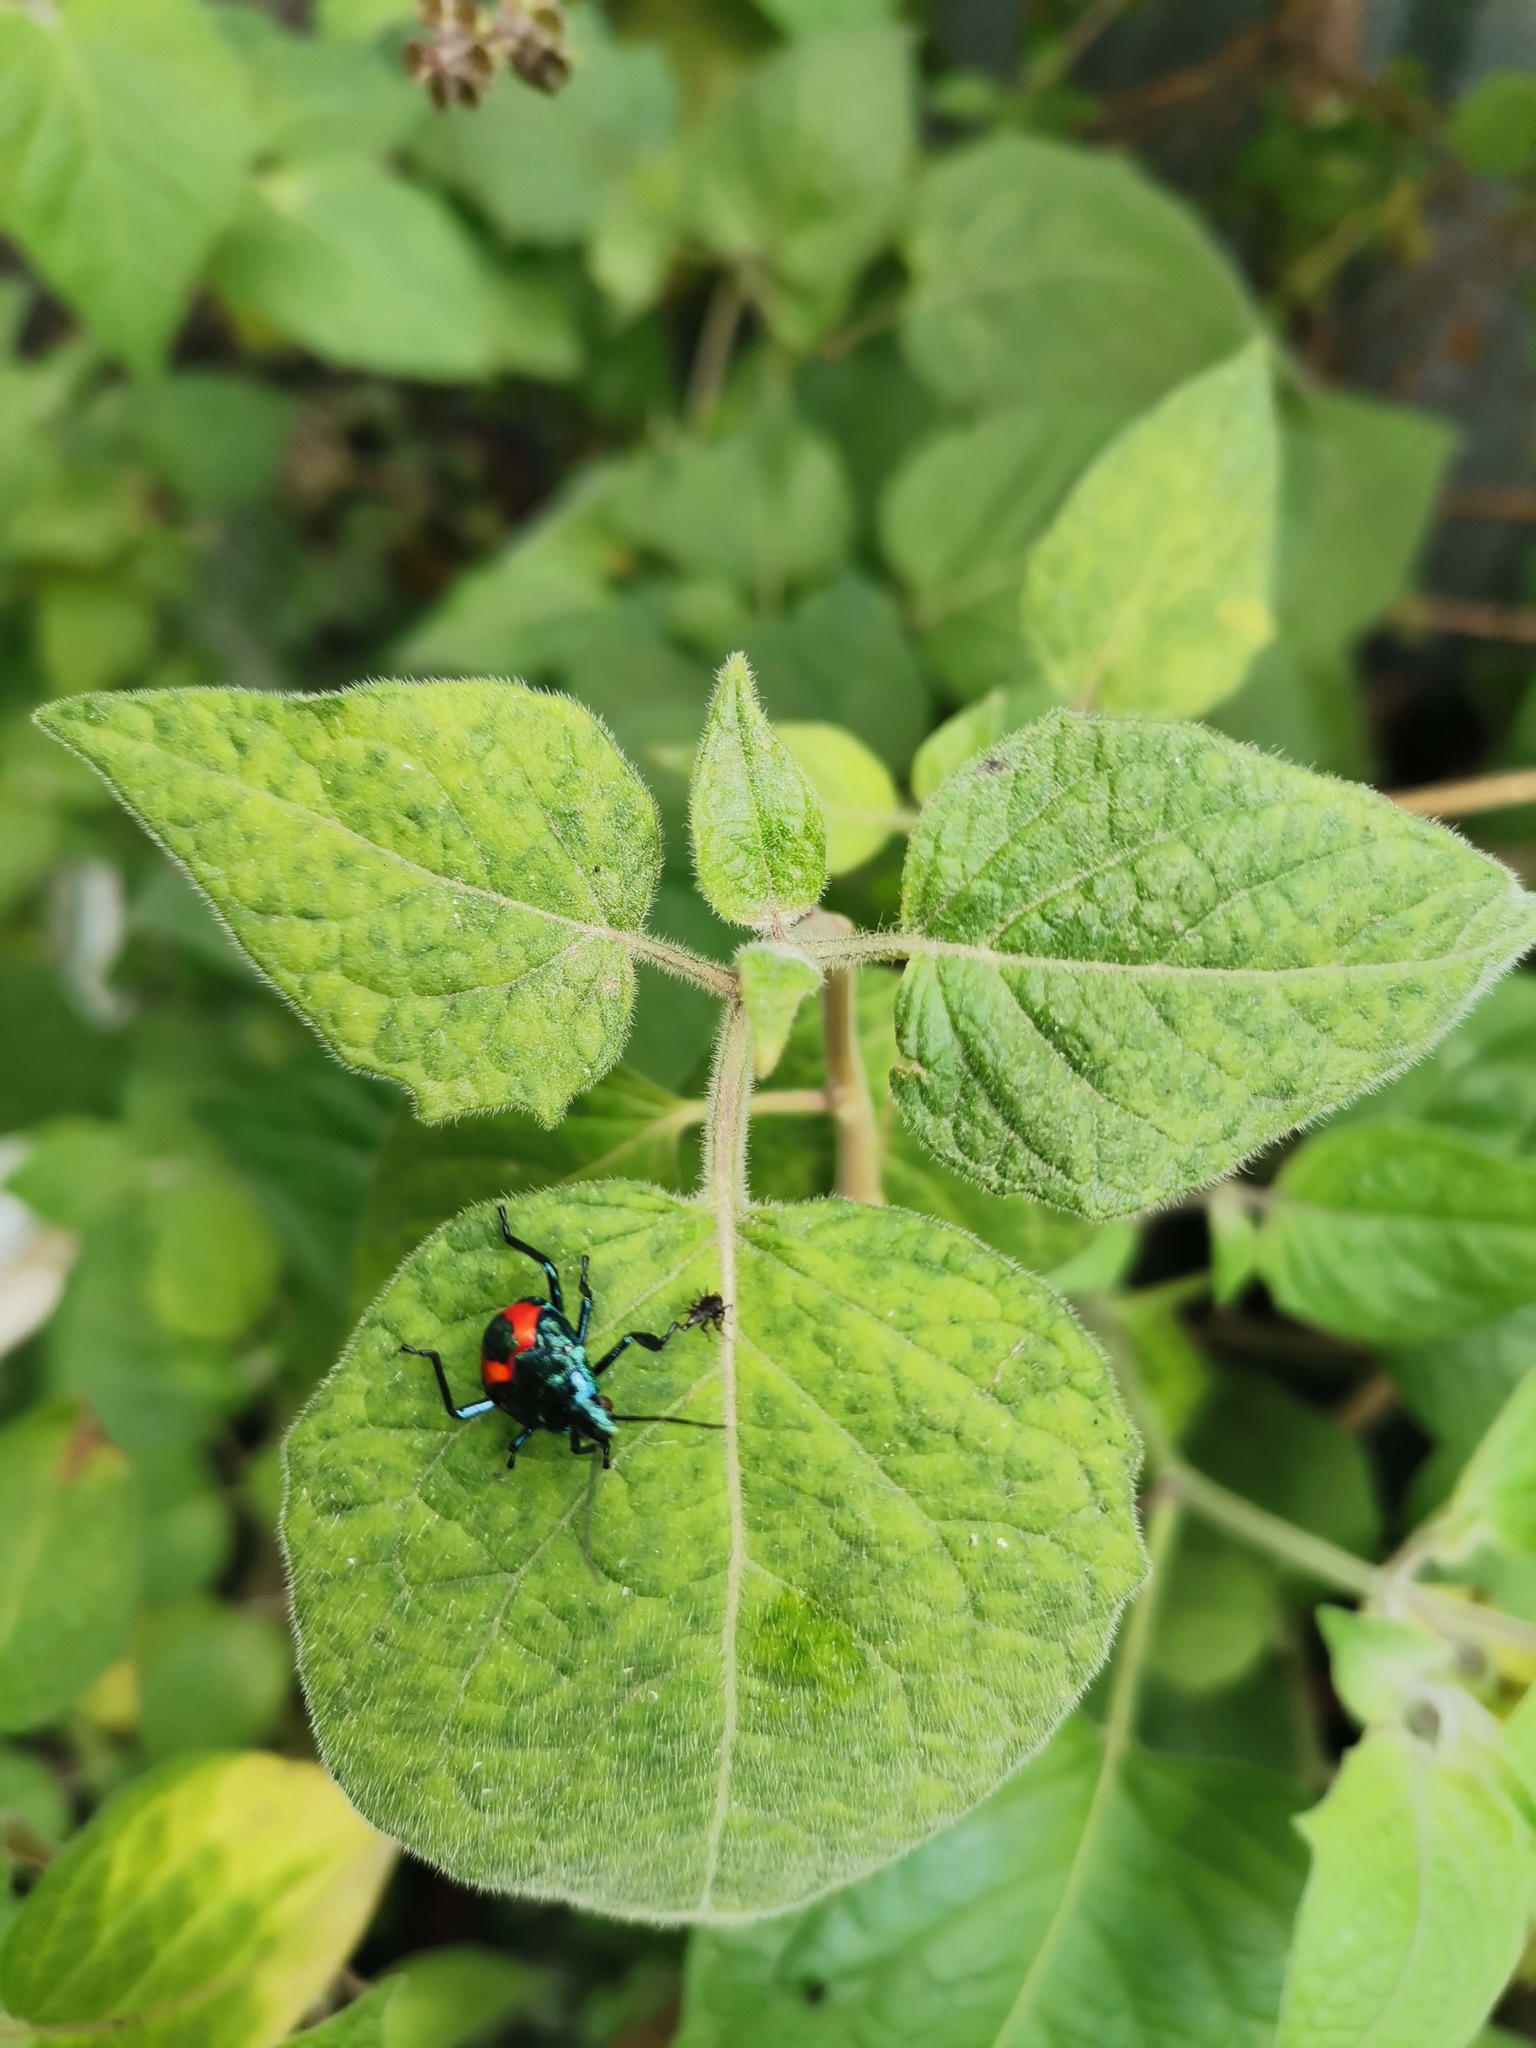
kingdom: Animalia
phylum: Arthropoda
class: Insecta
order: Hemiptera
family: Pentatomidae
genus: Euthyrhynchus
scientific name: Euthyrhynchus floridanus
